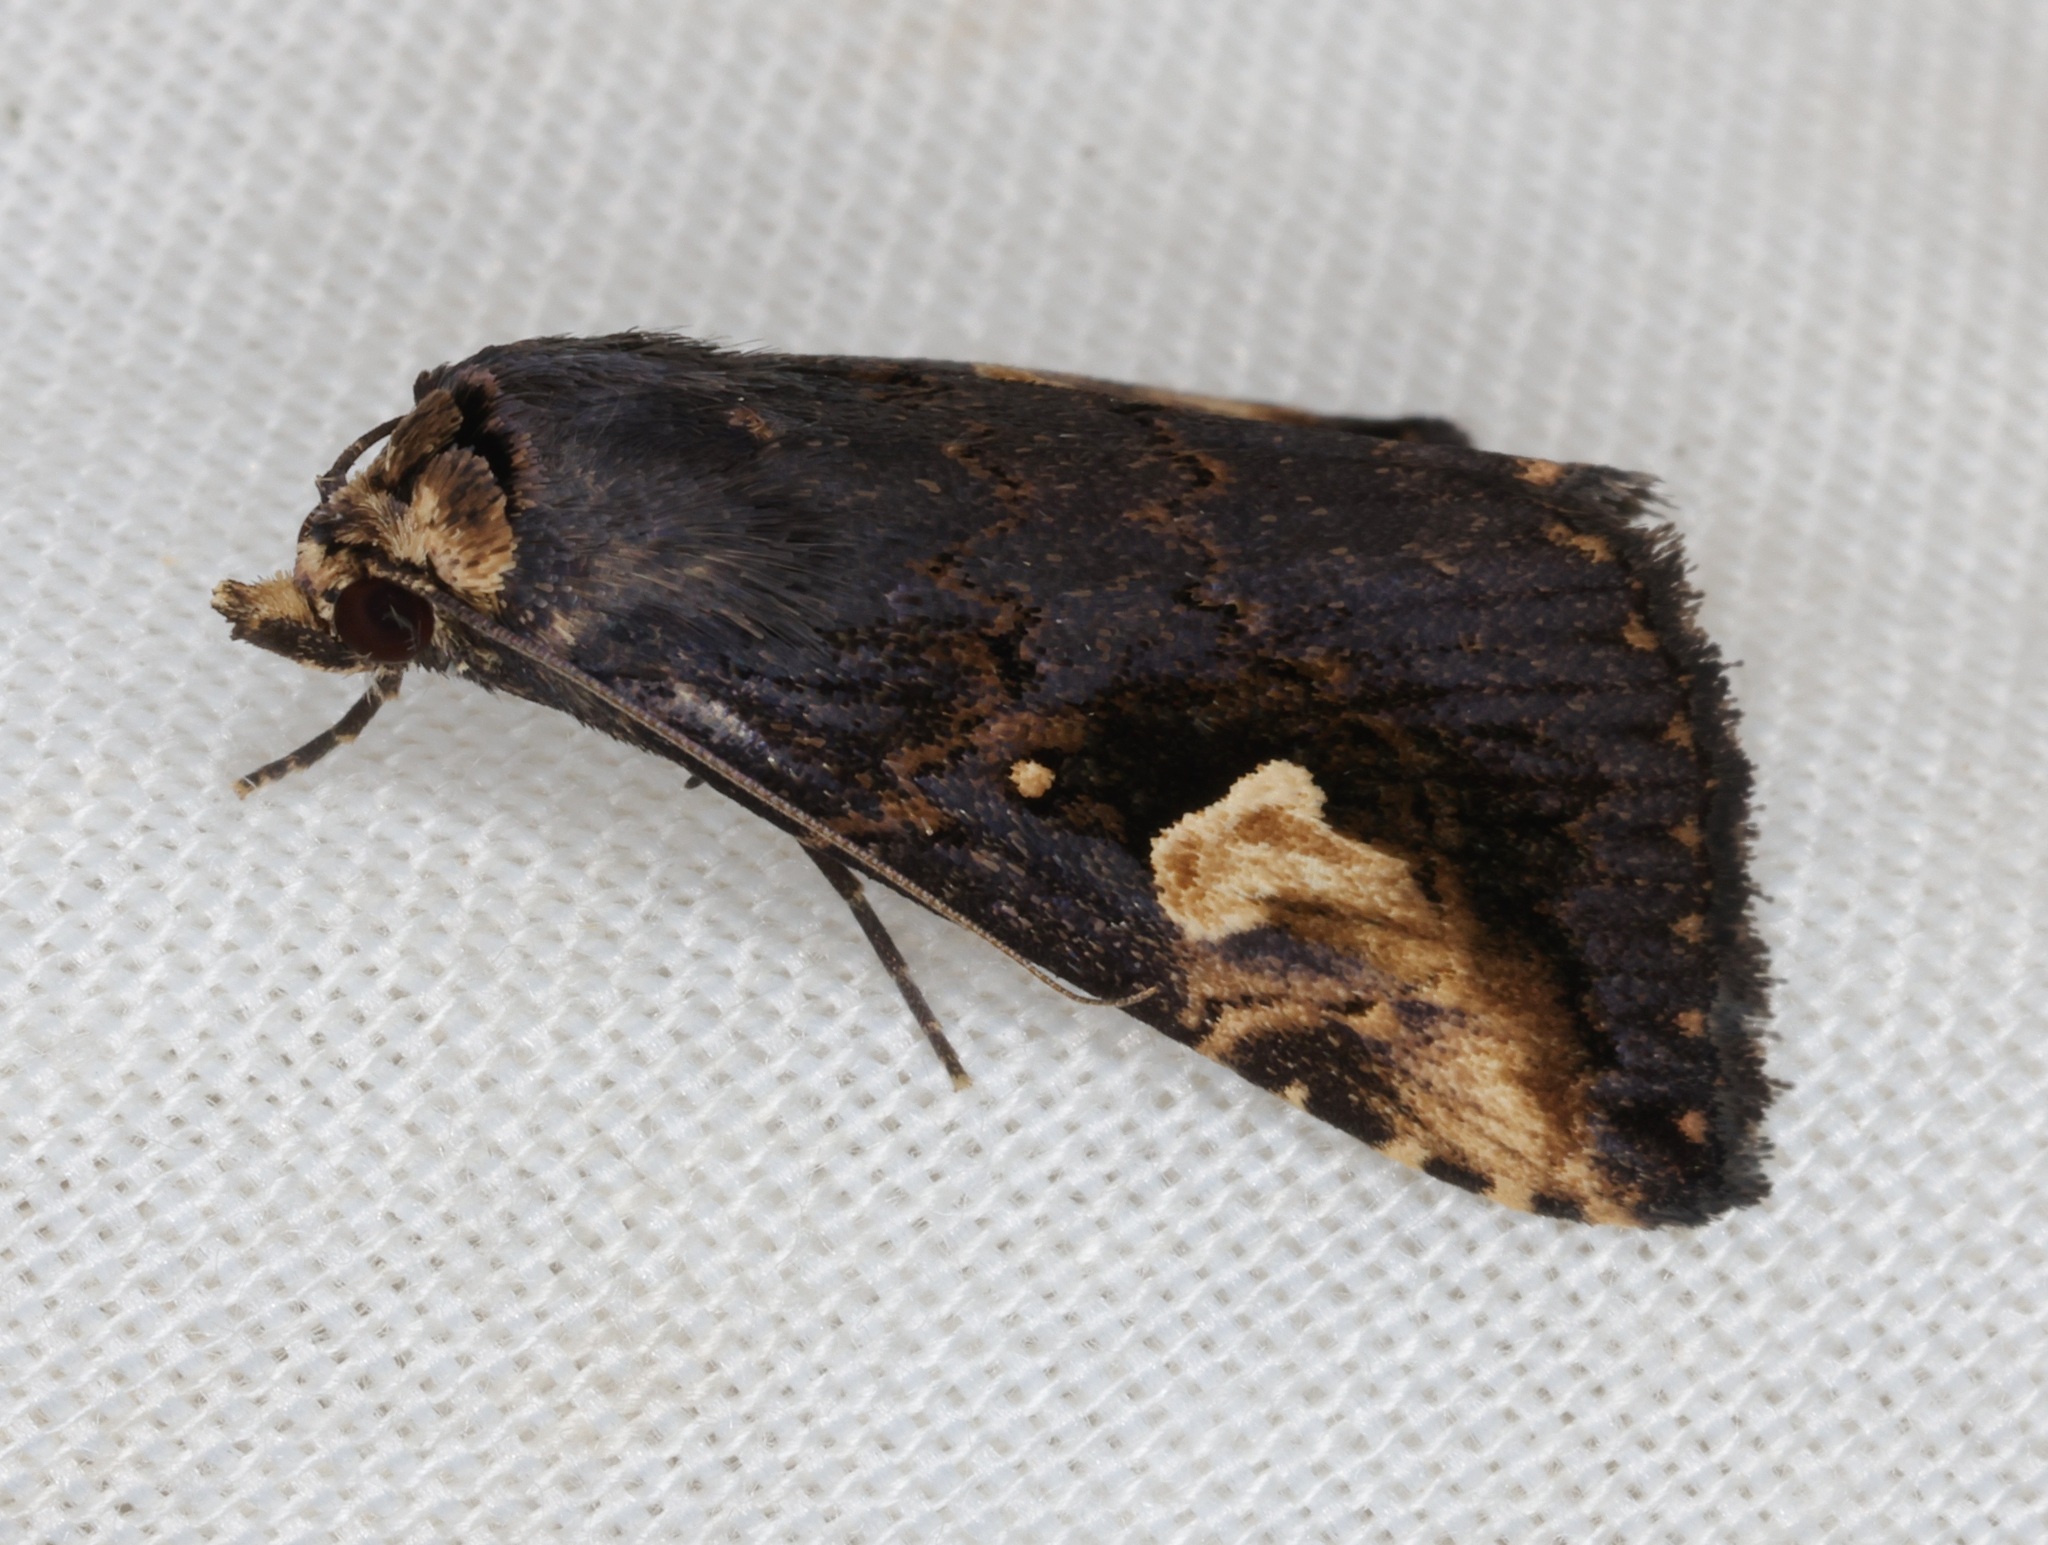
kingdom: Animalia
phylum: Arthropoda
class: Insecta
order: Lepidoptera
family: Erebidae
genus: Pseudosphetta
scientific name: Pseudosphetta moorei
